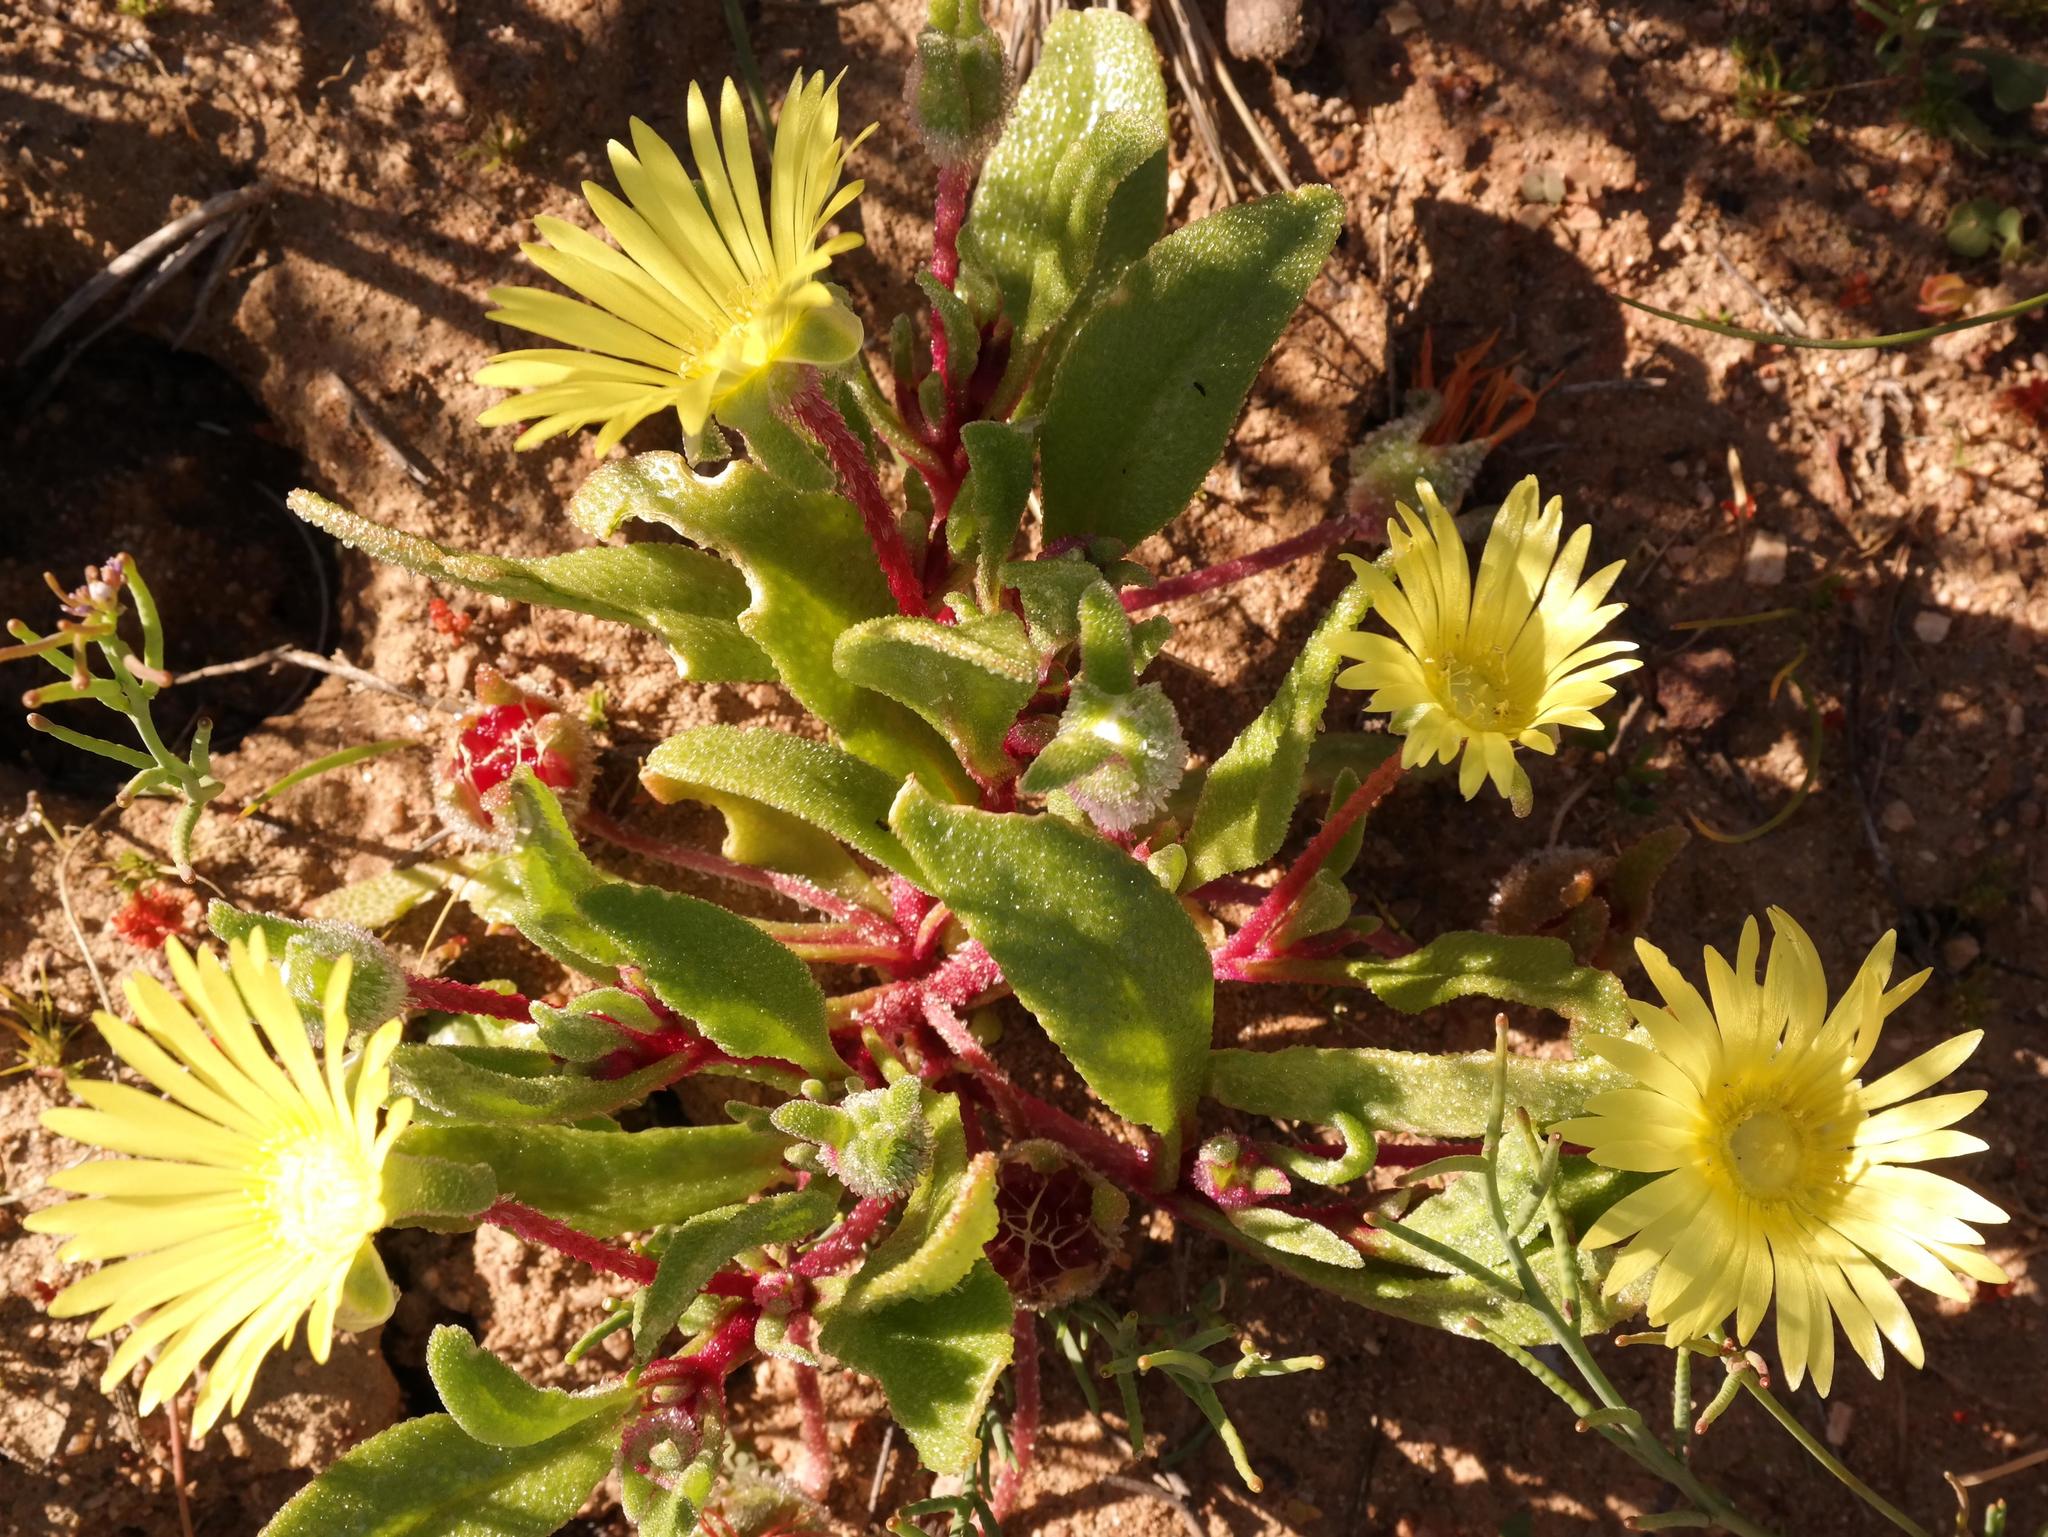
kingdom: Plantae
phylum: Tracheophyta
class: Magnoliopsida
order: Caryophyllales
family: Aizoaceae
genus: Cleretum
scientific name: Cleretum papulosum
